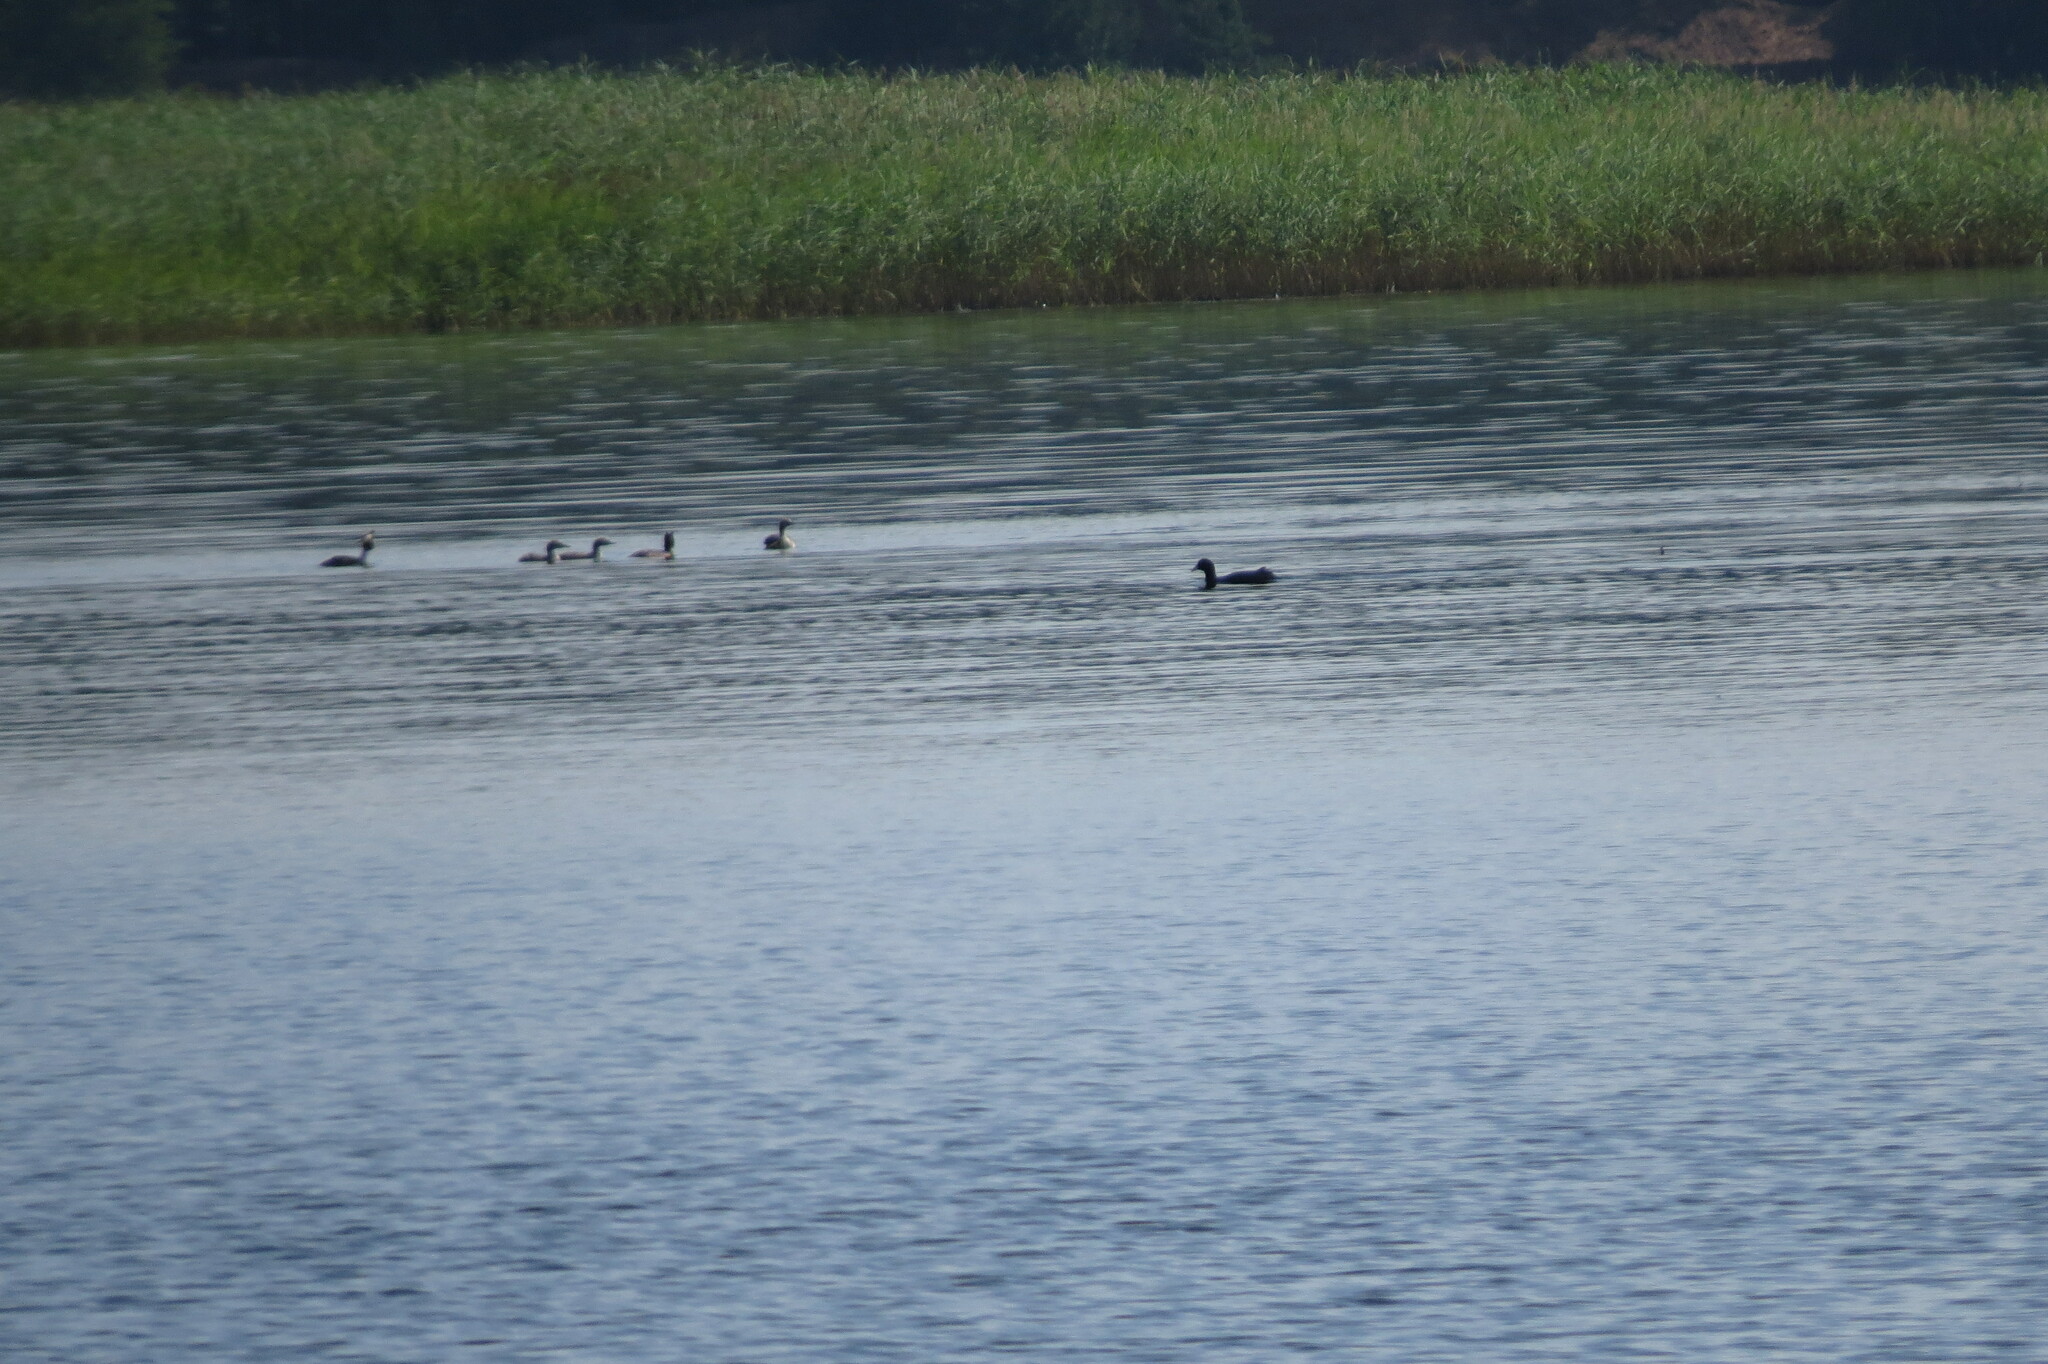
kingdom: Animalia
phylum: Chordata
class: Aves
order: Podicipediformes
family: Podicipedidae
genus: Podiceps
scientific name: Podiceps cristatus
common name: Great crested grebe
